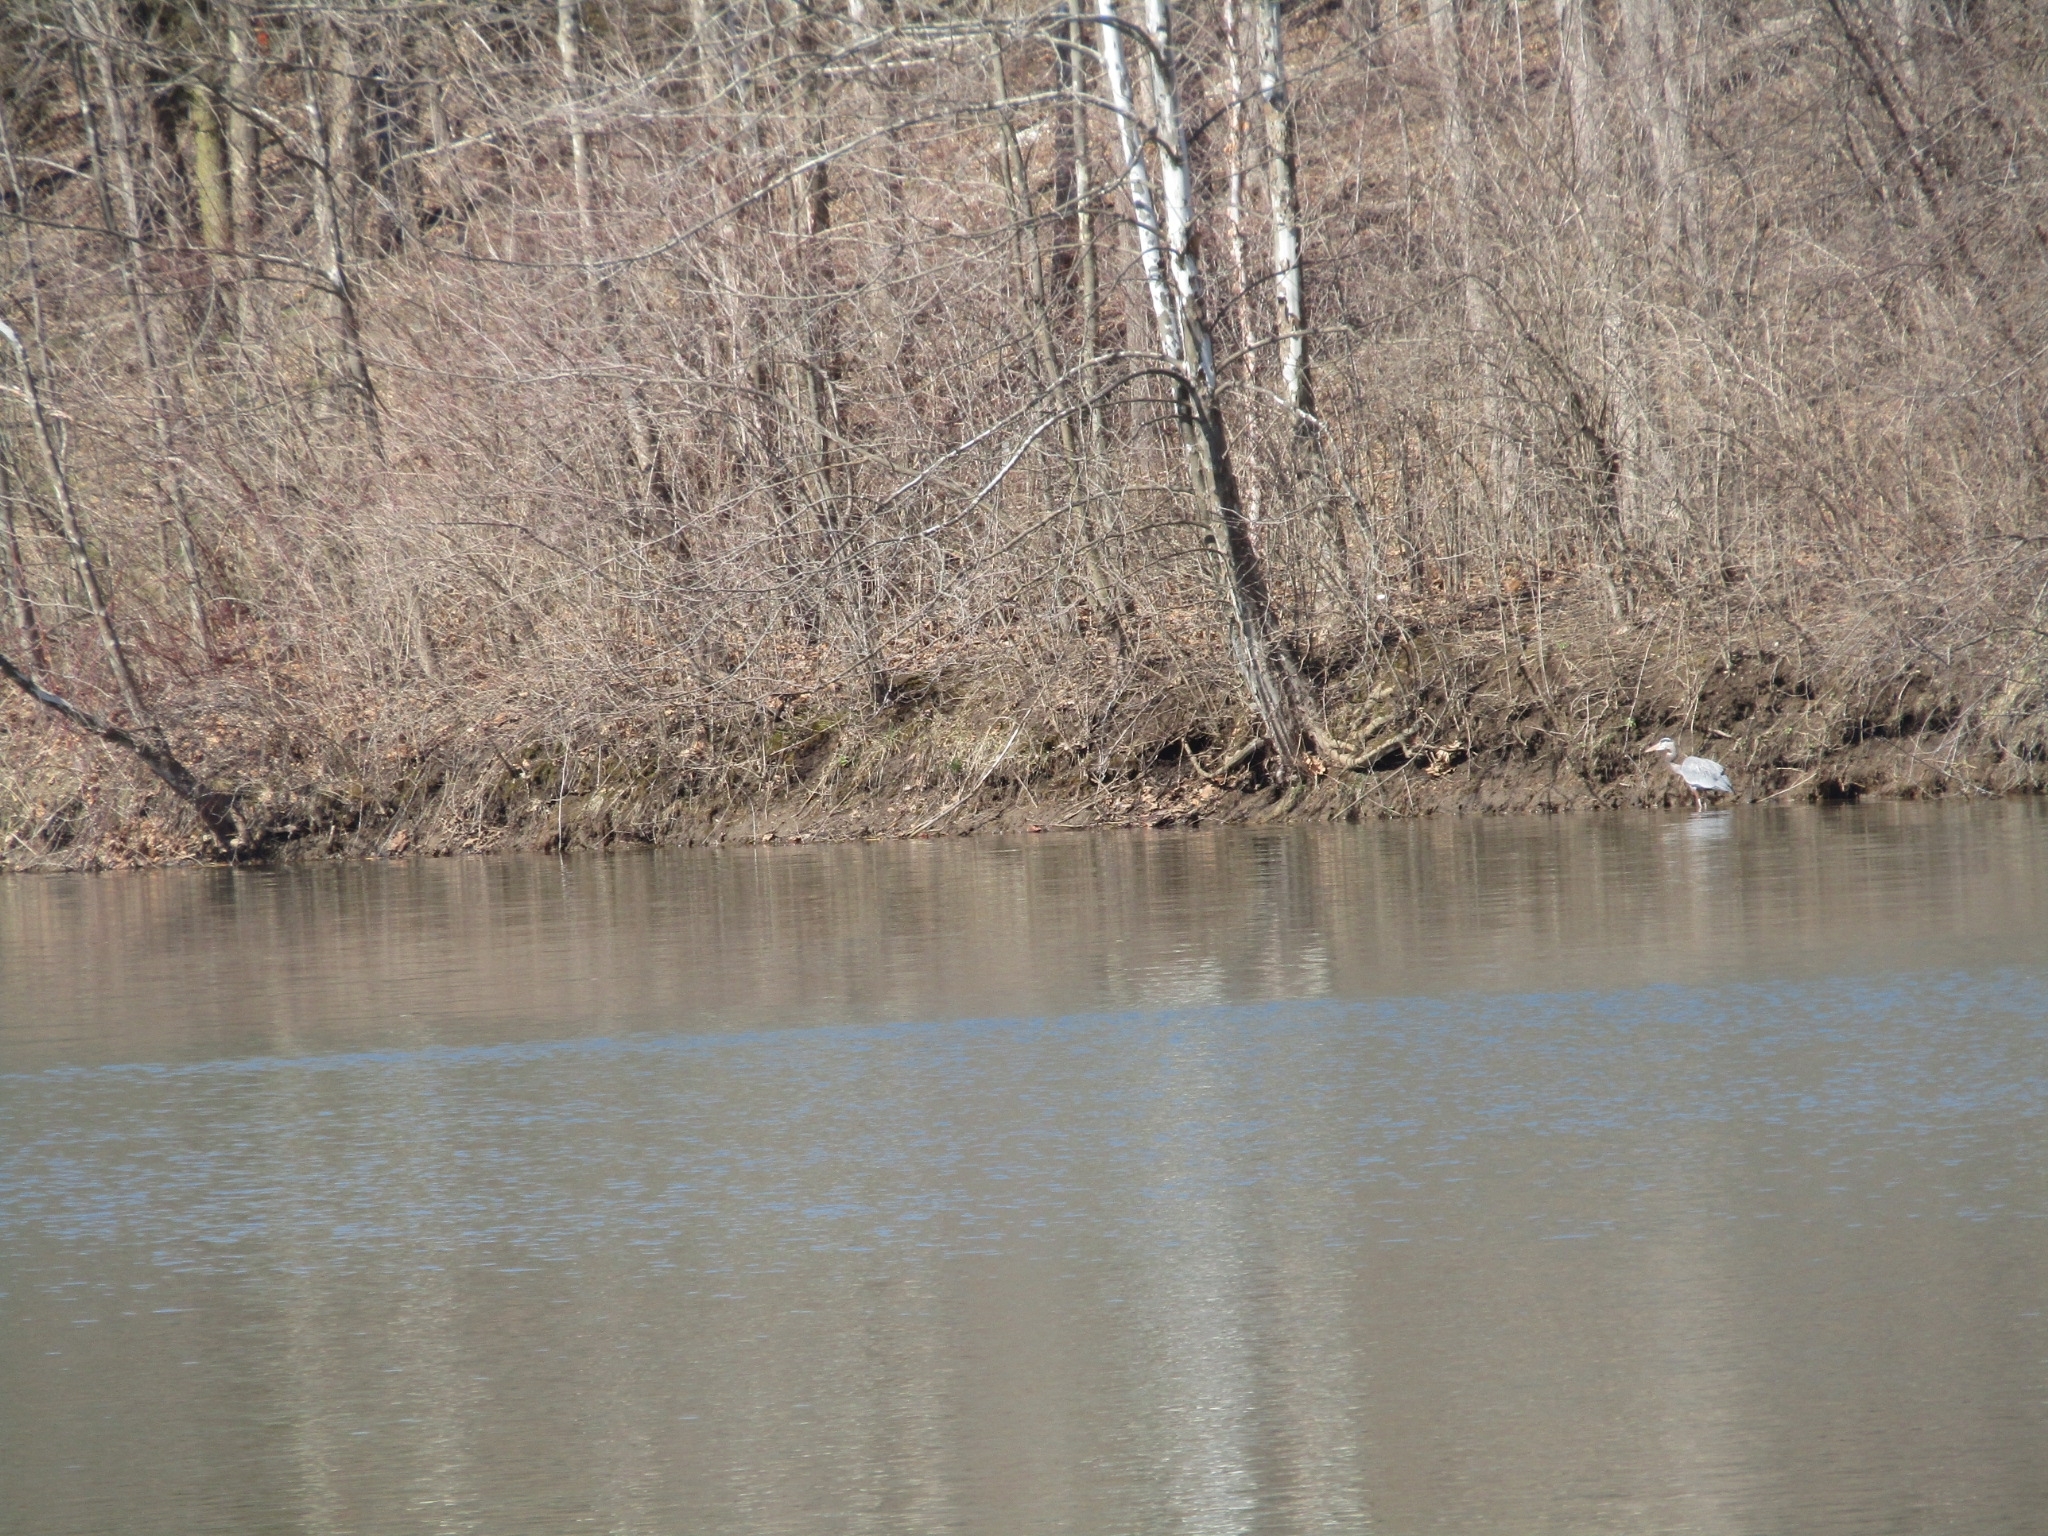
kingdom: Animalia
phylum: Chordata
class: Aves
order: Pelecaniformes
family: Ardeidae
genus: Ardea
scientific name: Ardea herodias
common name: Great blue heron
